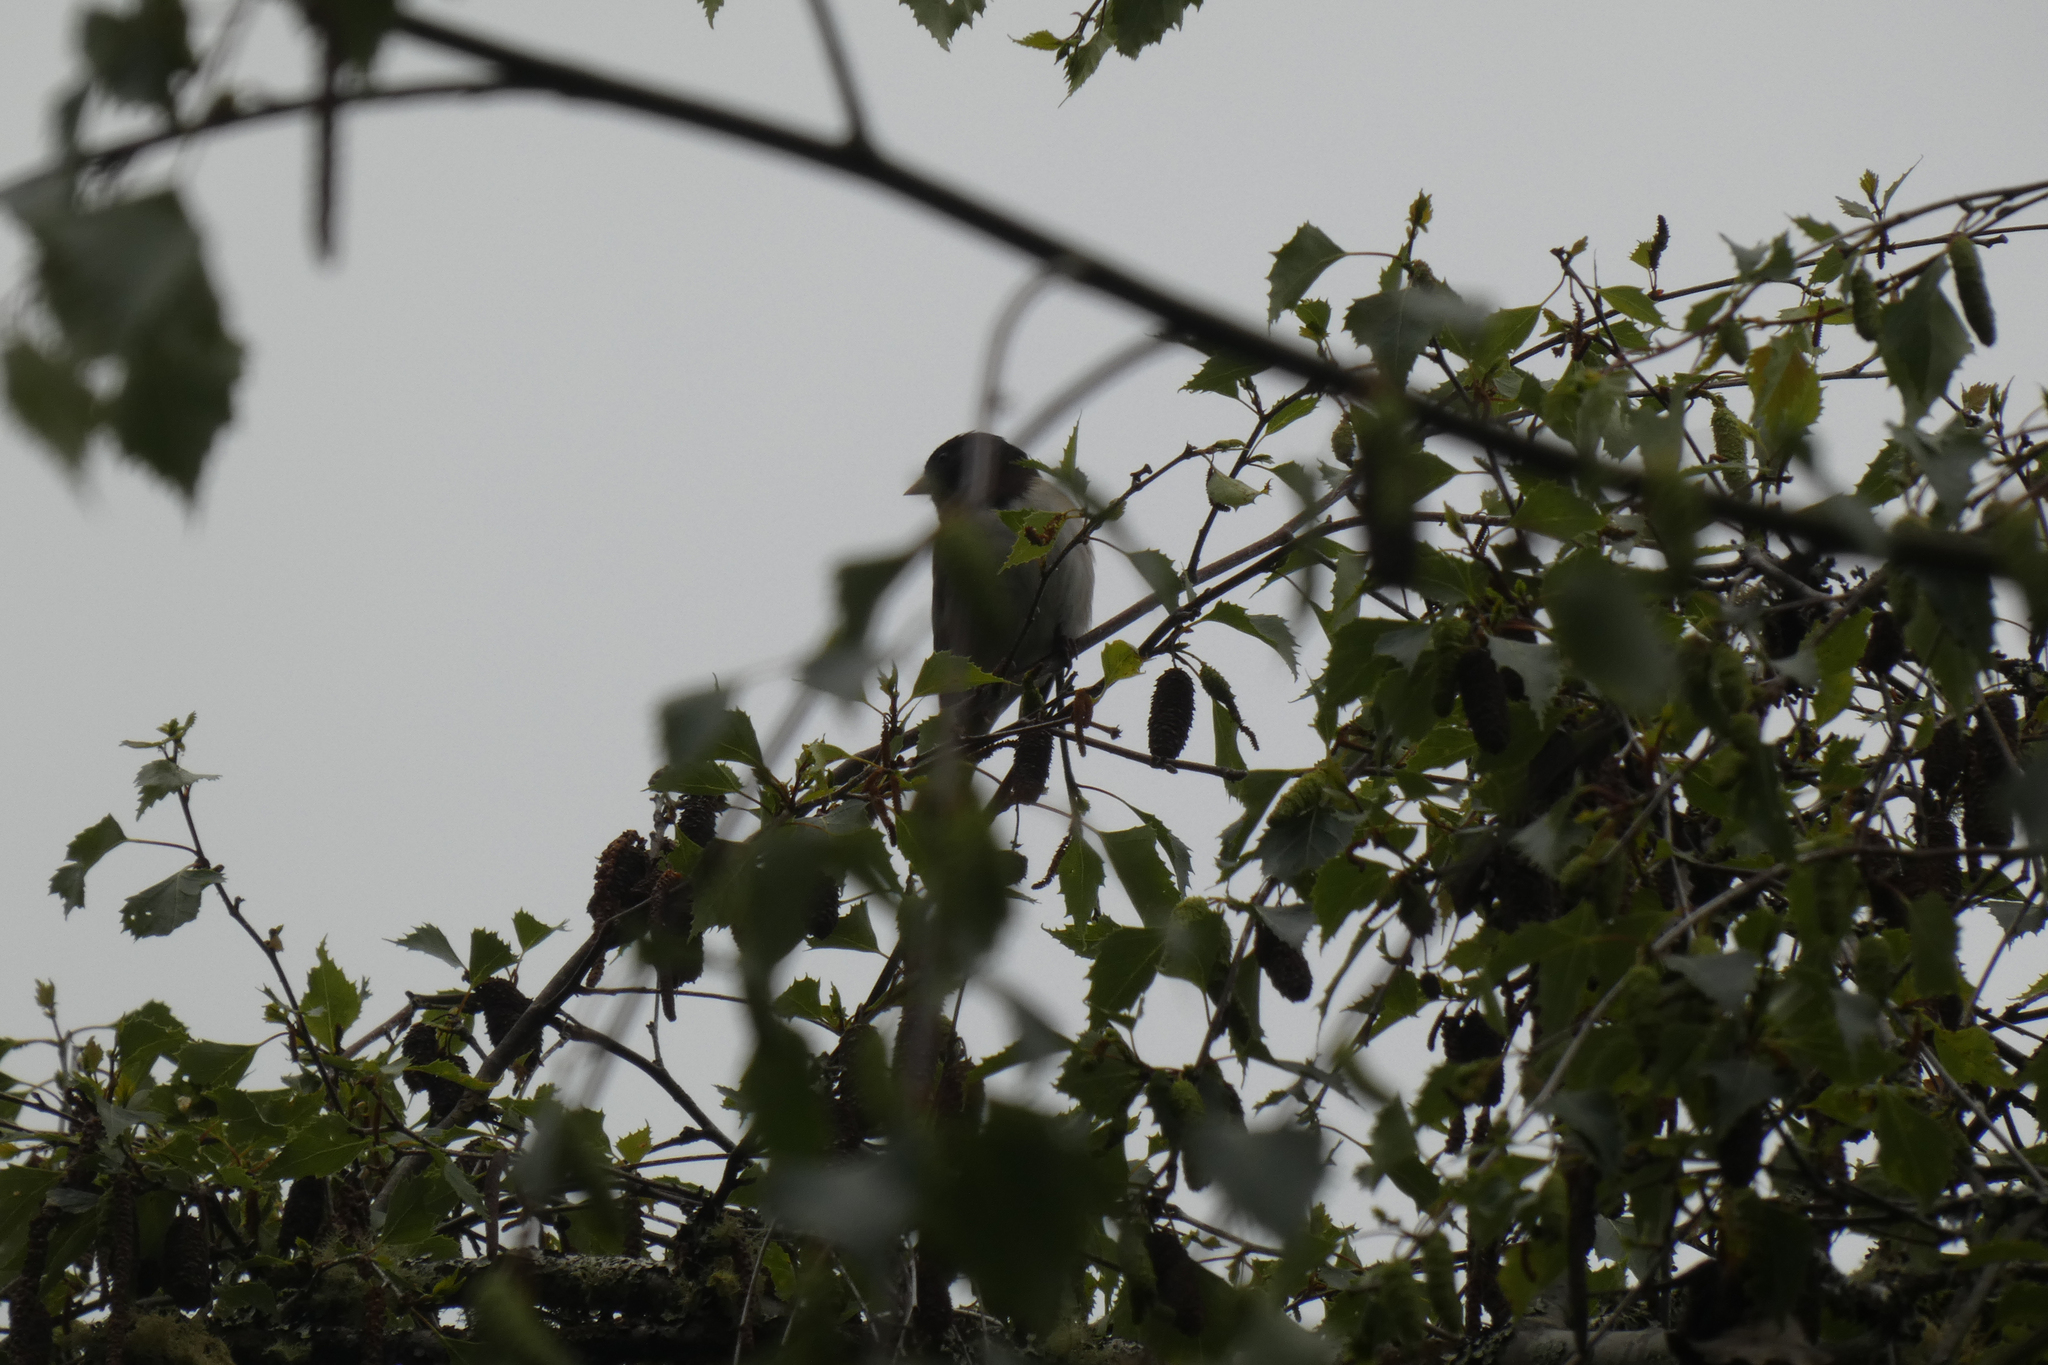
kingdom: Animalia
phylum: Chordata
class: Aves
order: Passeriformes
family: Passerellidae
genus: Junco
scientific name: Junco hyemalis
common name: Dark-eyed junco
